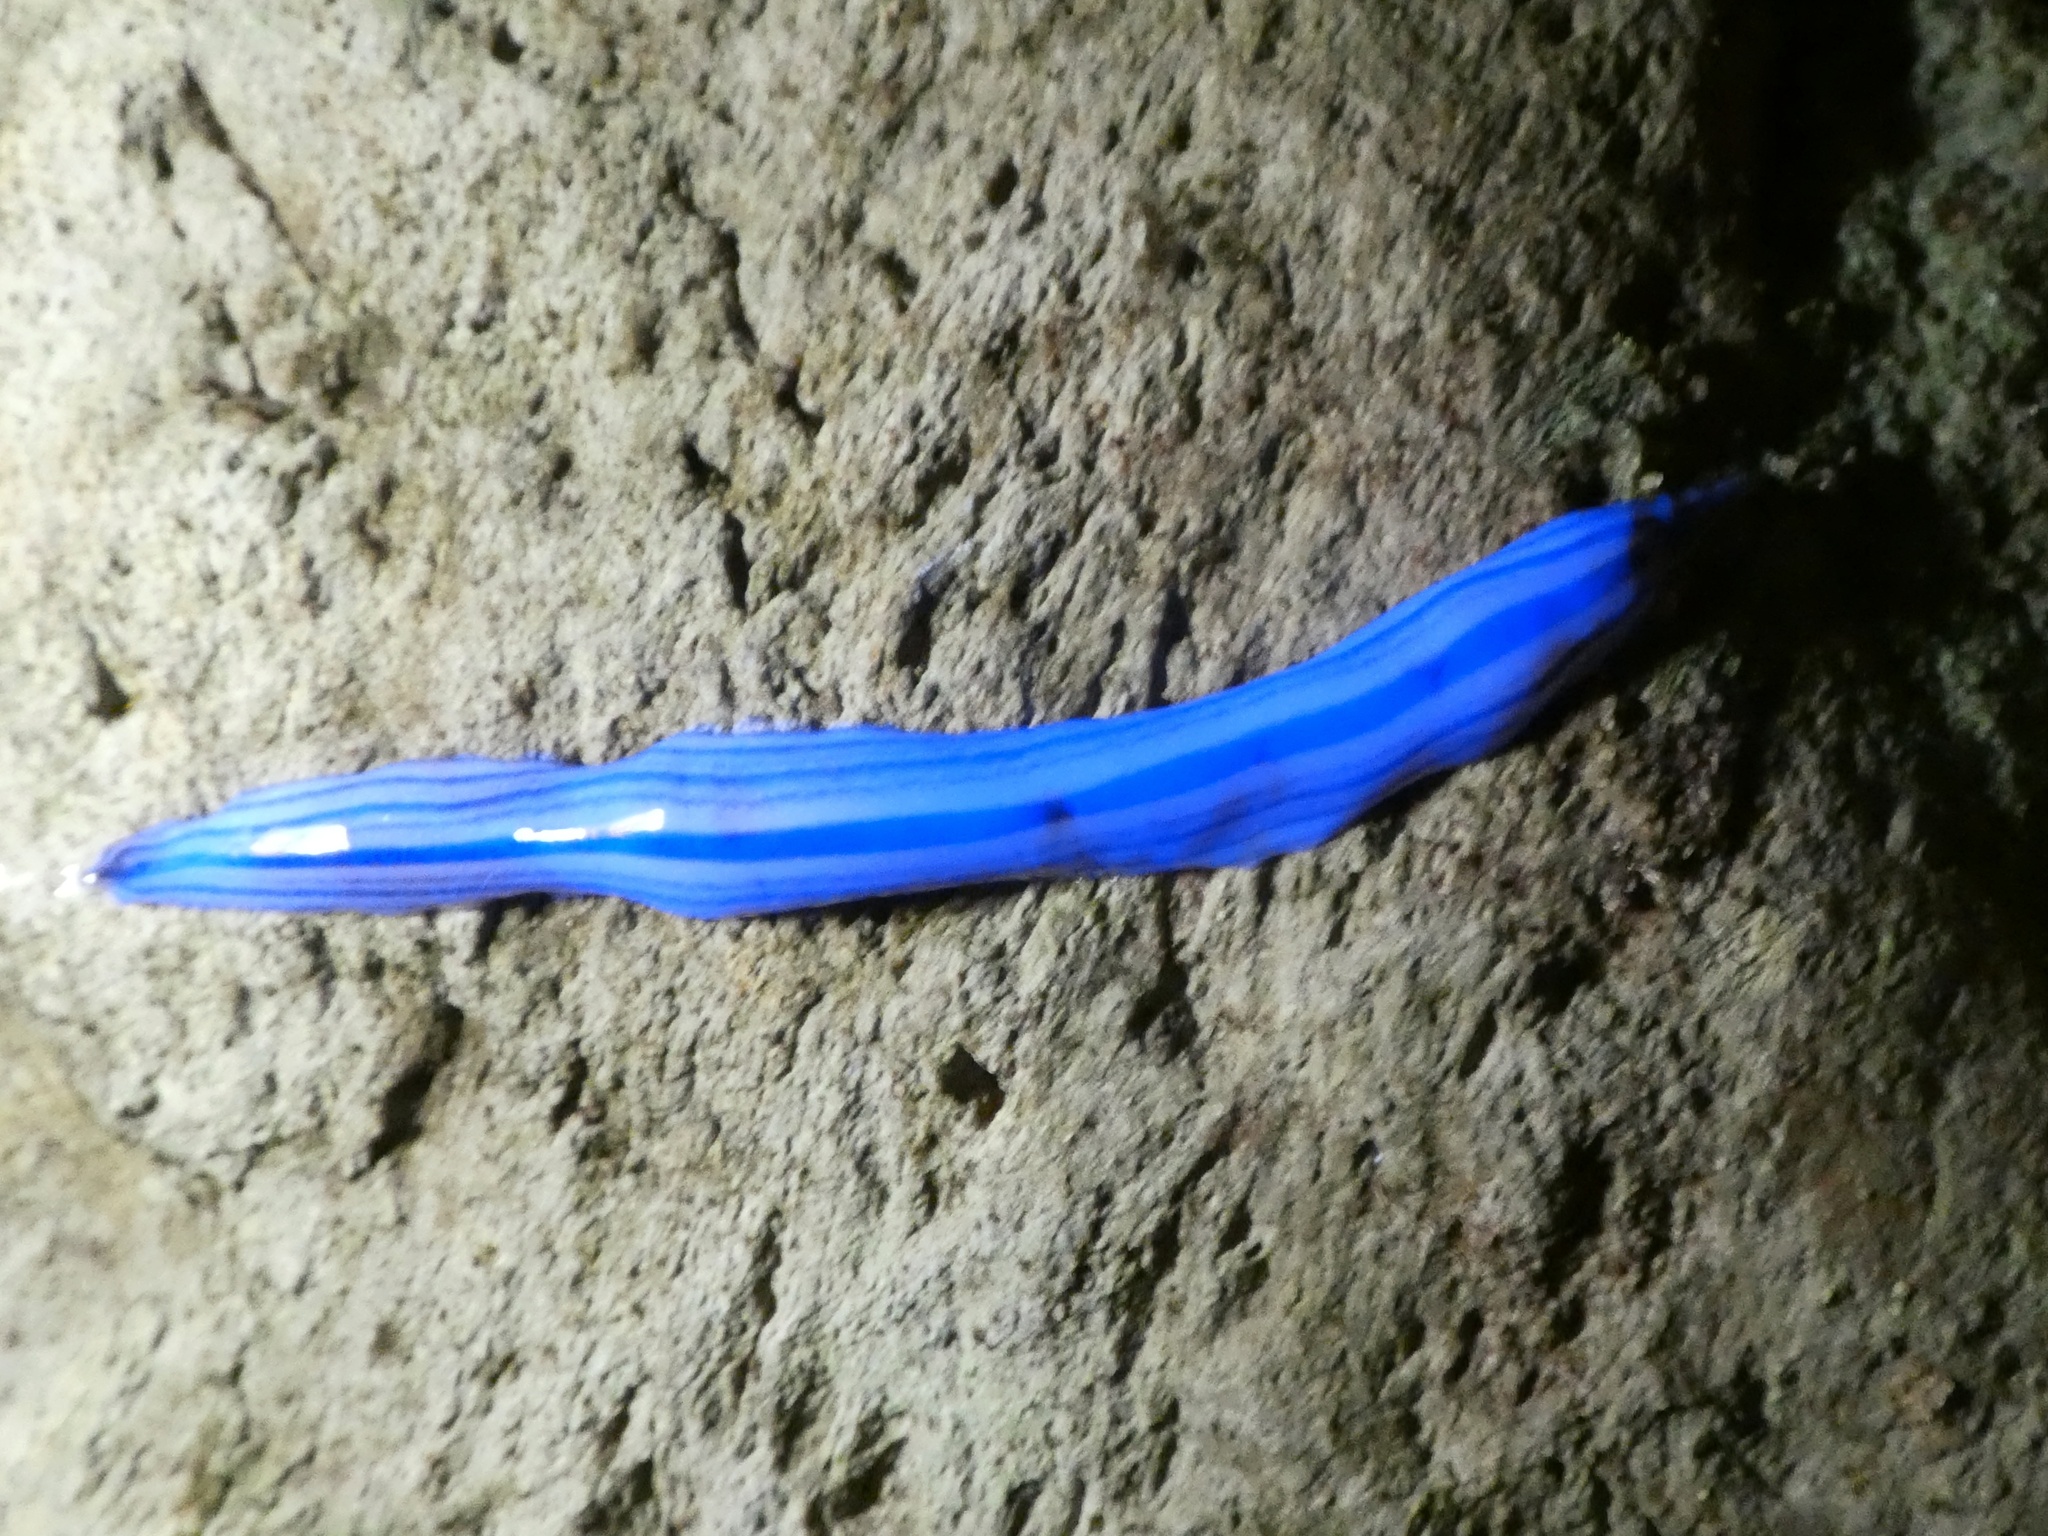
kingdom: Animalia
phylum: Platyhelminthes
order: Tricladida
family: Geoplanidae
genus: Australopacifica
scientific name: Australopacifica regina
